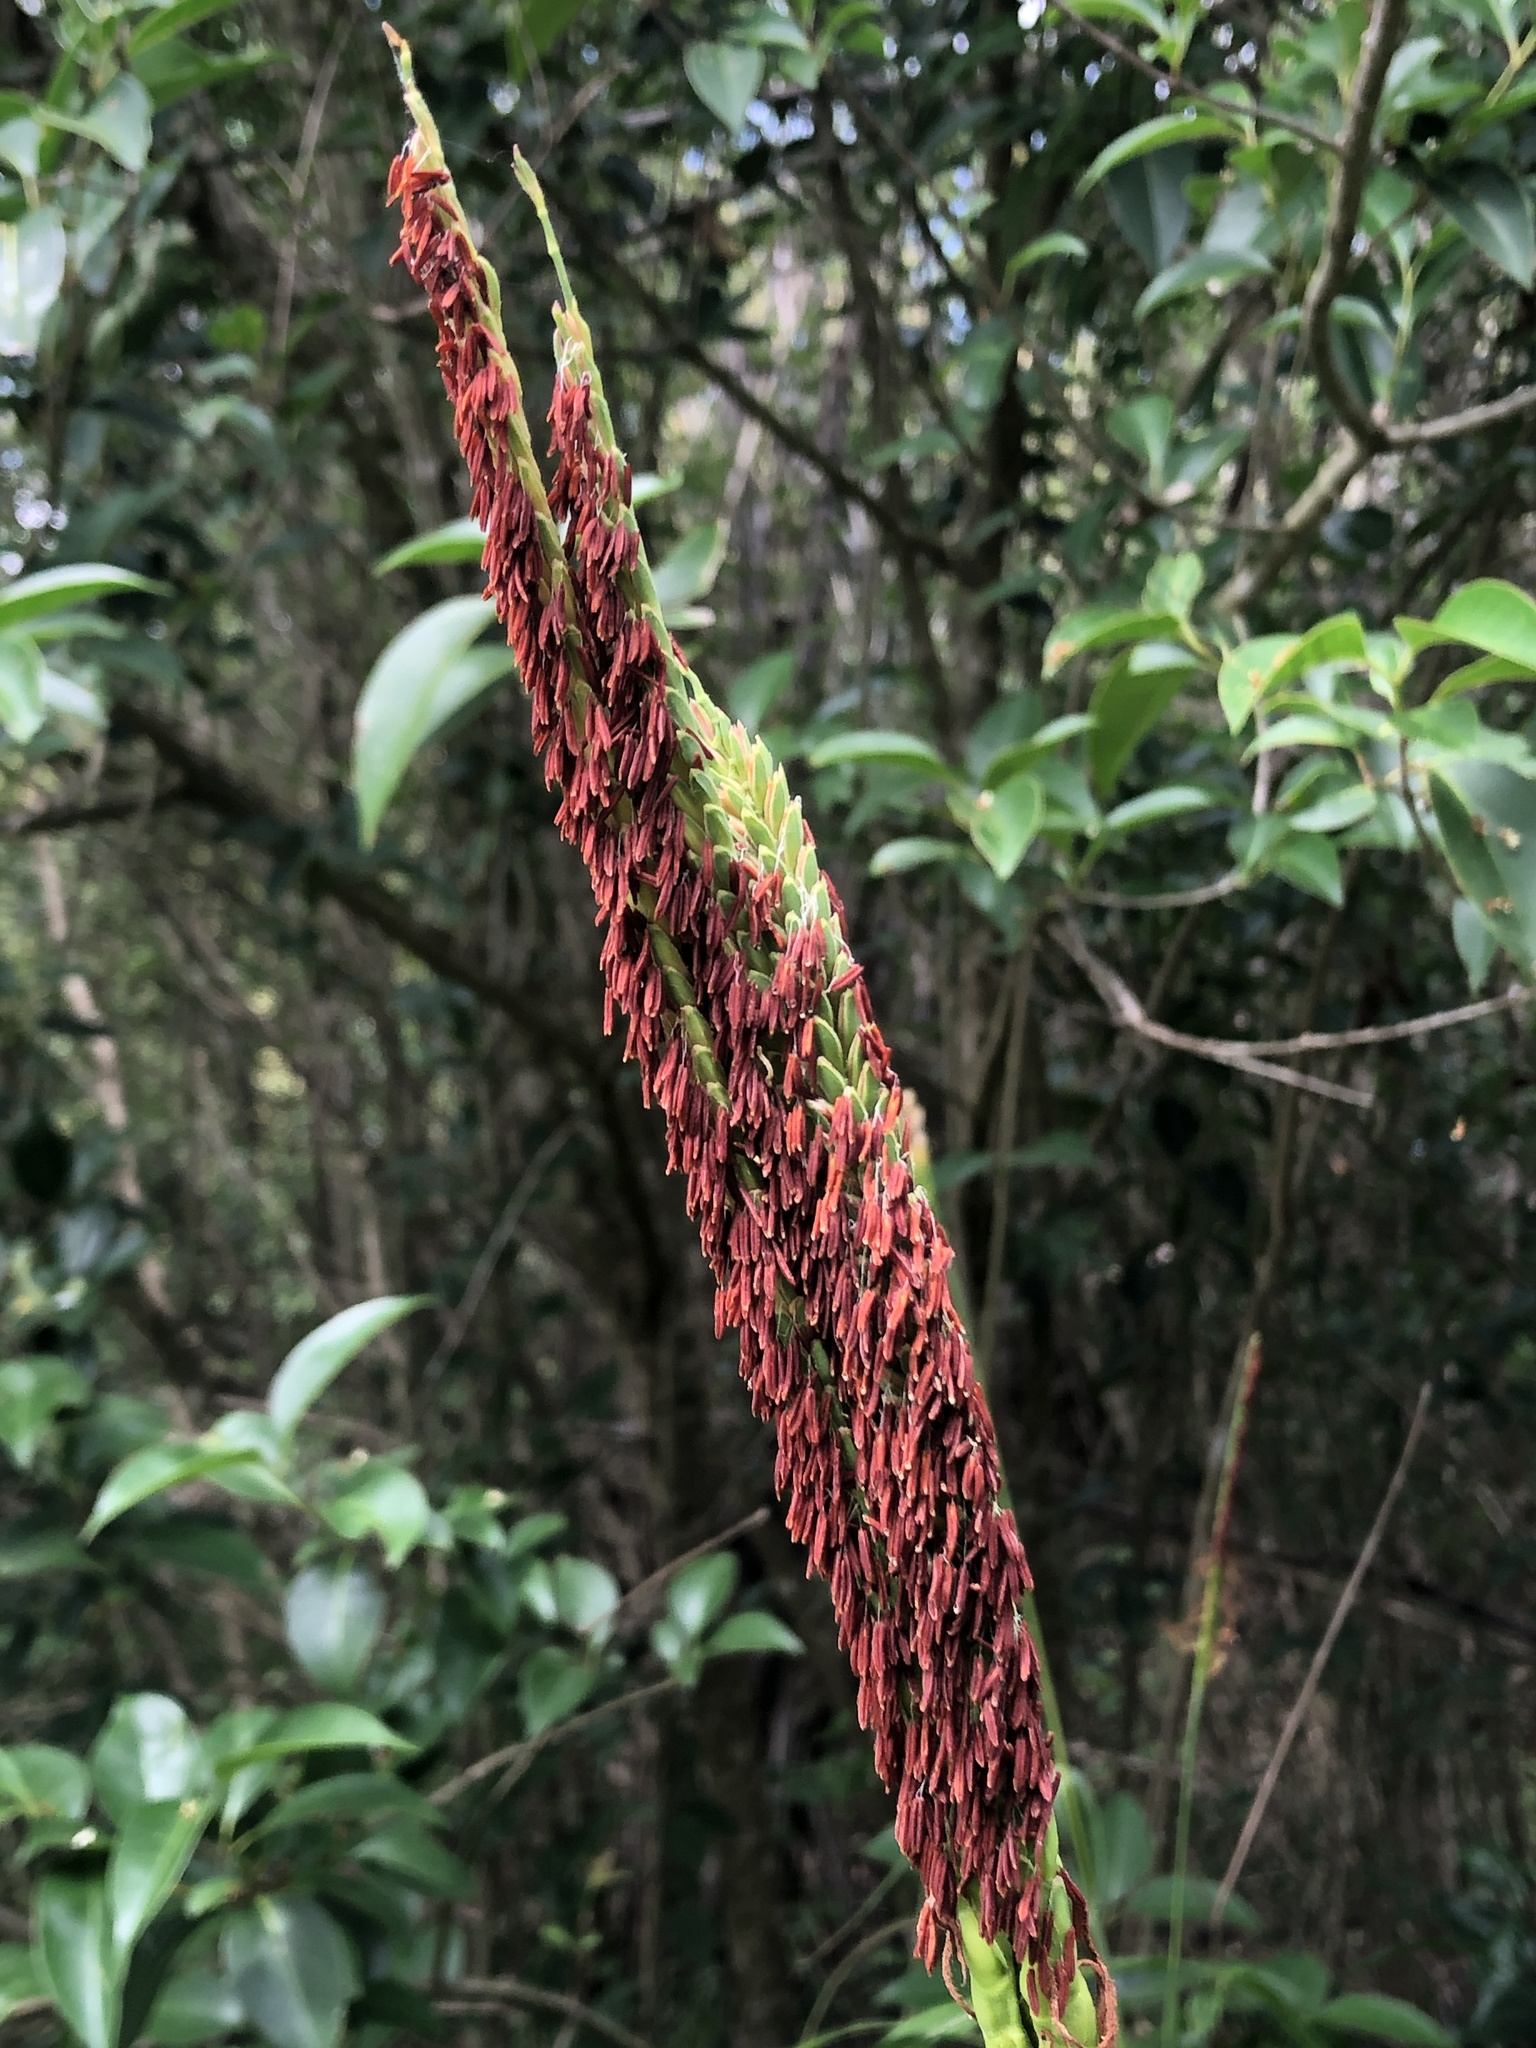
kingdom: Plantae
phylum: Tracheophyta
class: Liliopsida
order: Poales
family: Poaceae
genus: Tripsacum
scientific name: Tripsacum dactyloides
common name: Buffalo-grass
